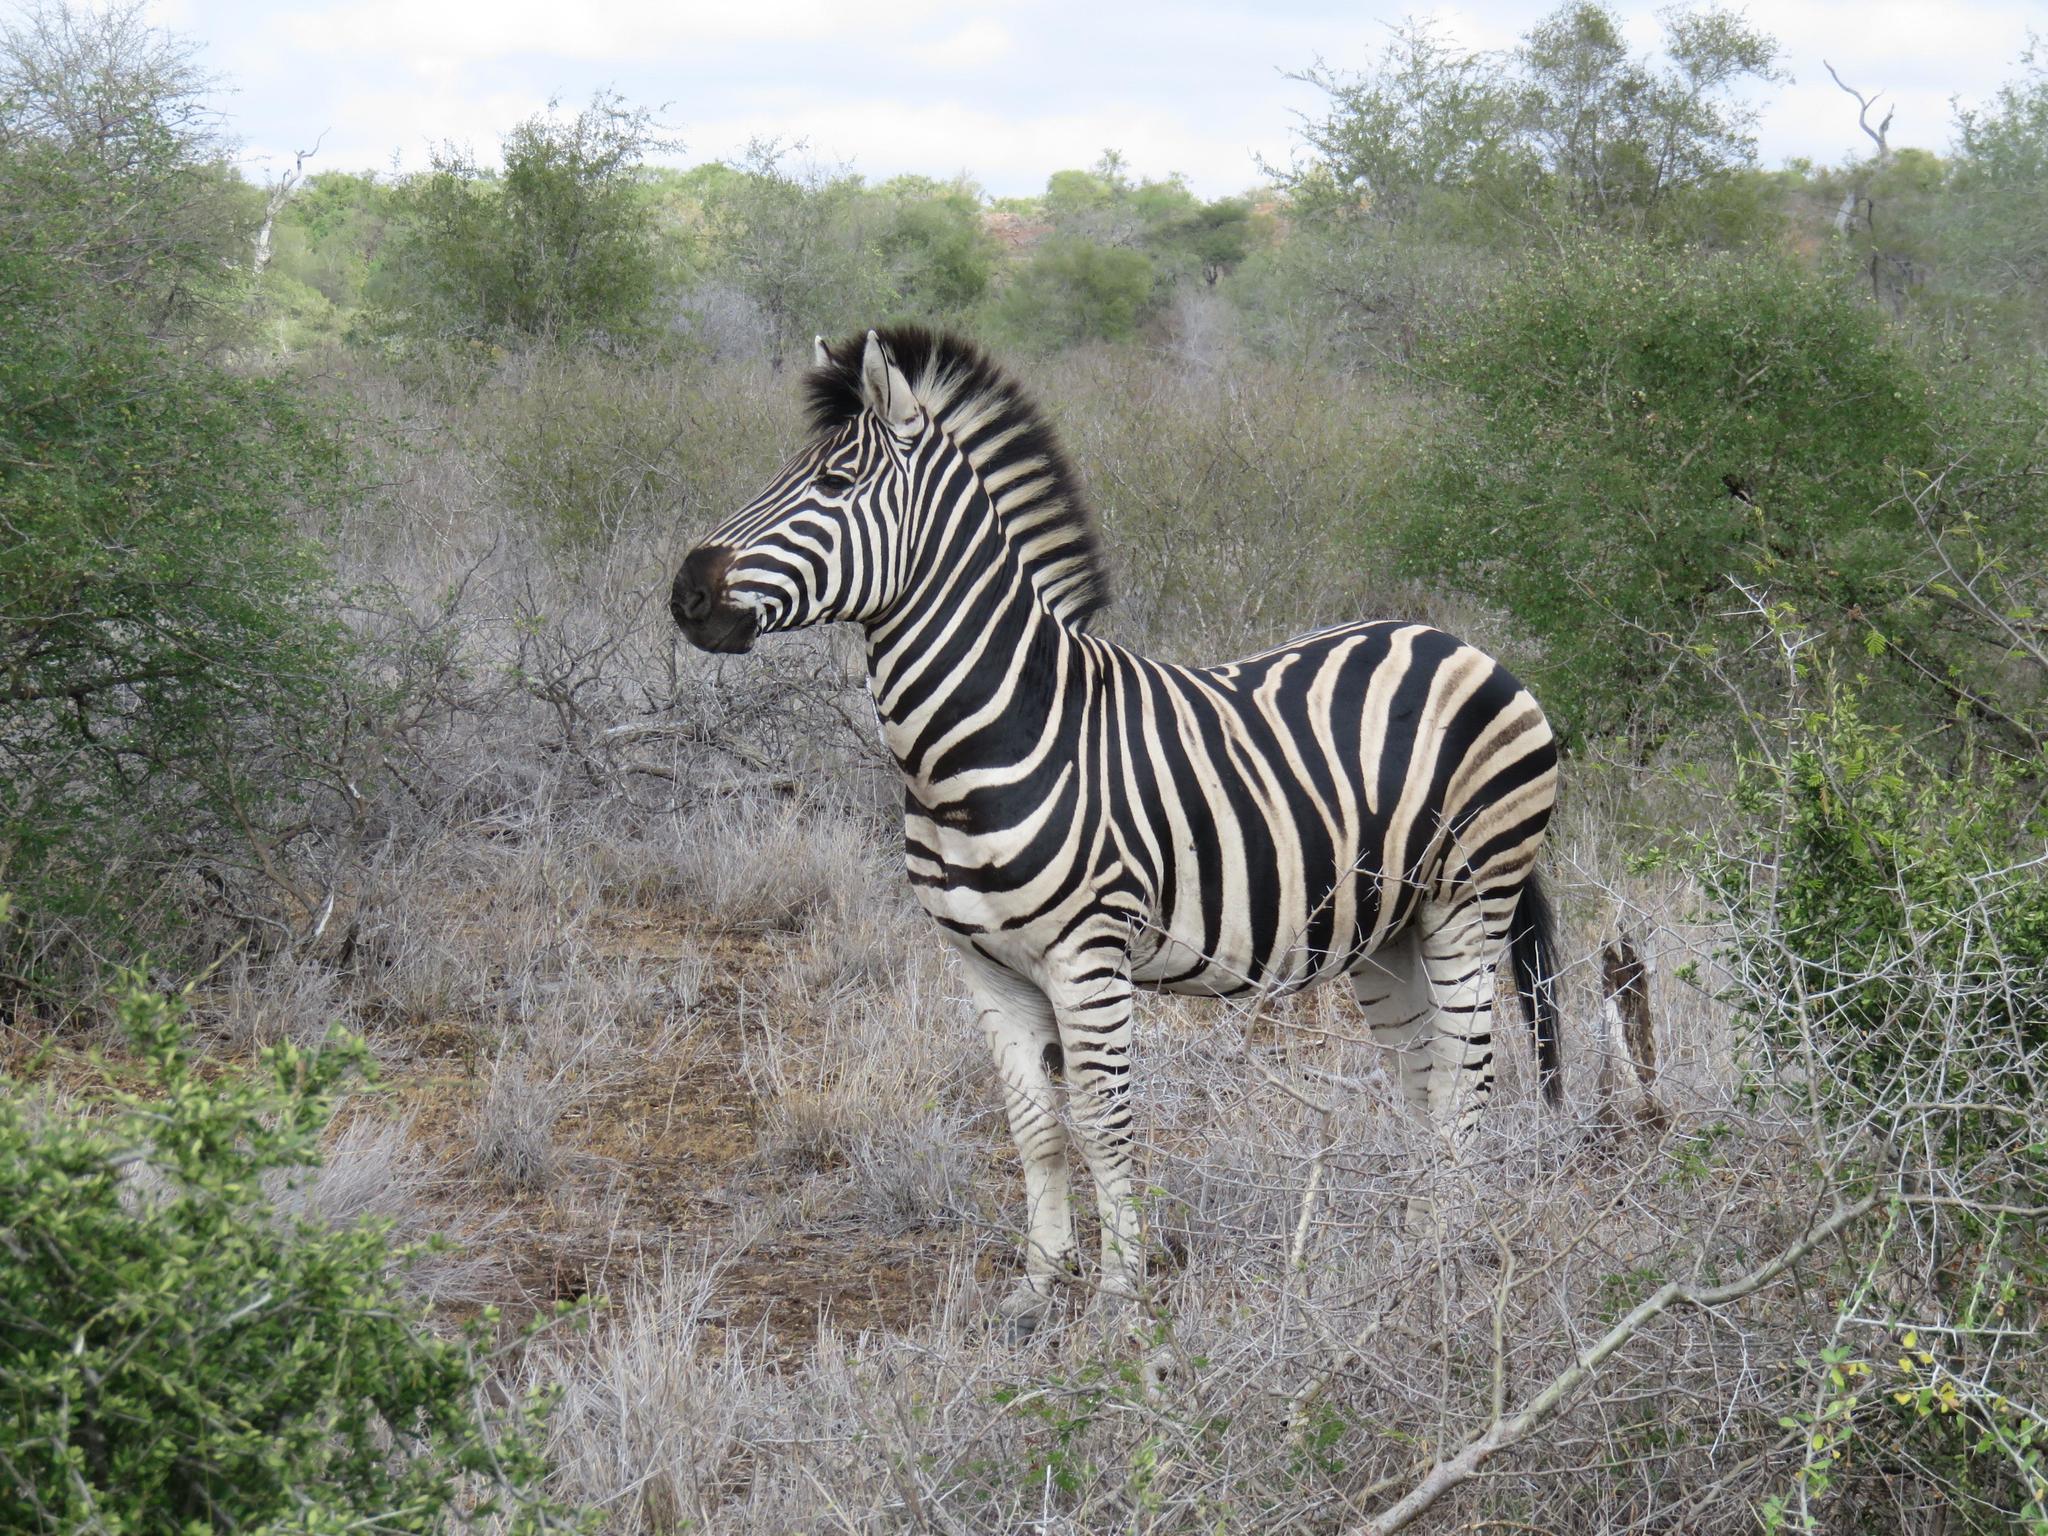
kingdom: Animalia
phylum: Chordata
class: Mammalia
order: Perissodactyla
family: Equidae
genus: Equus
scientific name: Equus quagga
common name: Plains zebra
